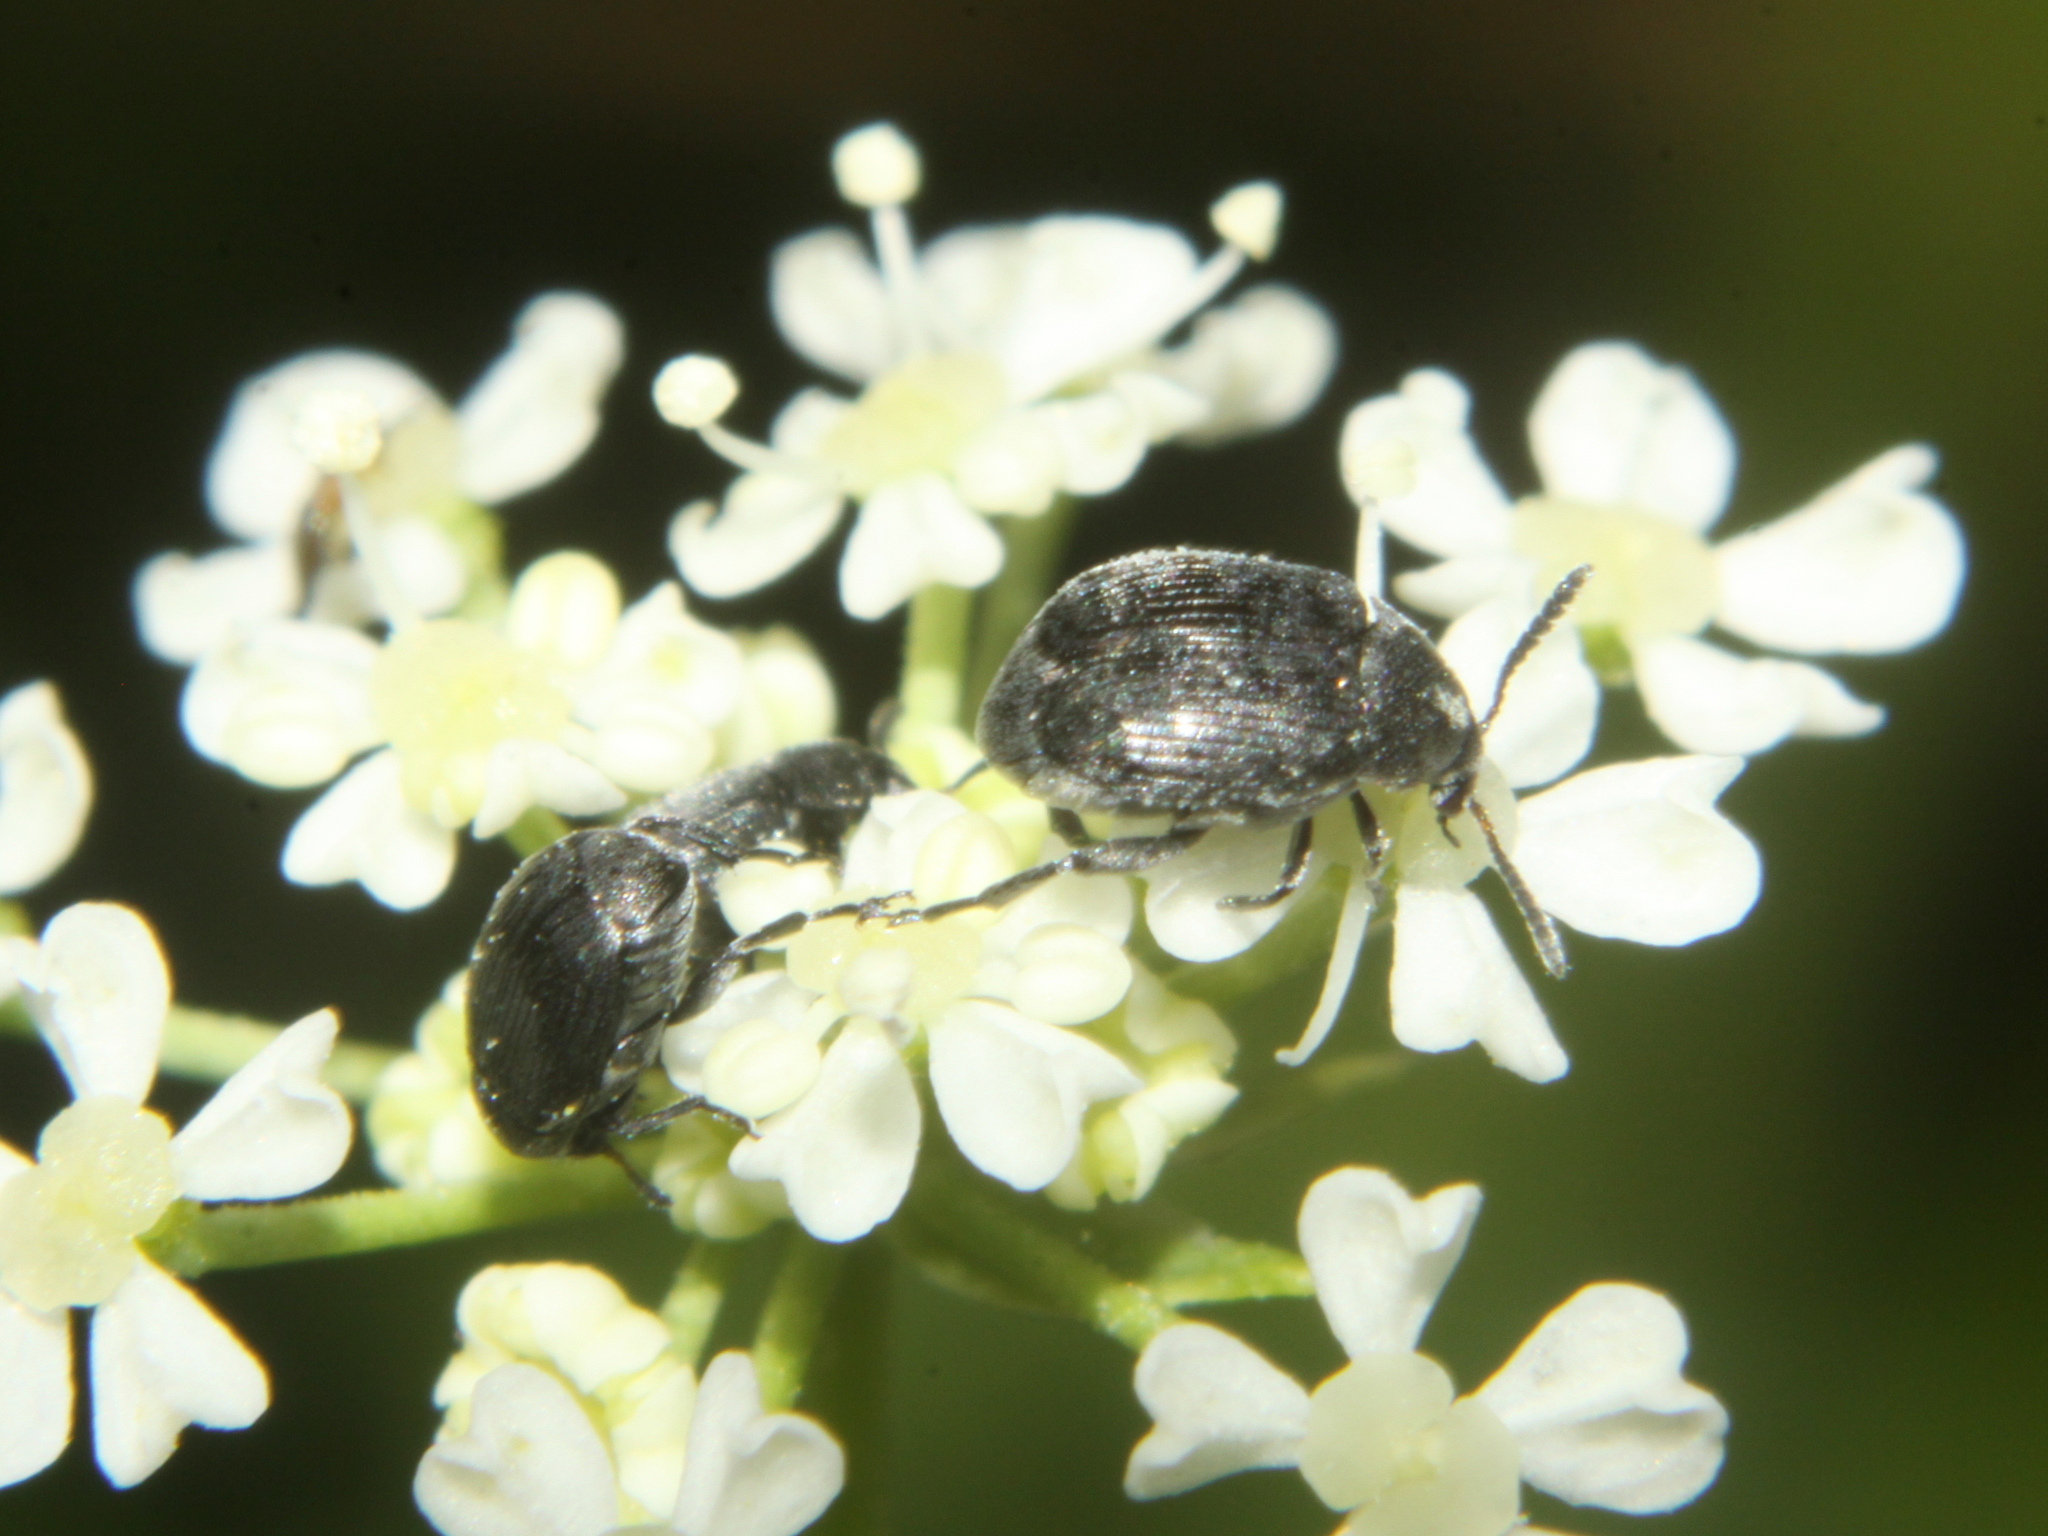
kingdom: Animalia
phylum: Arthropoda
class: Insecta
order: Coleoptera
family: Chrysomelidae
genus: Bruchidius
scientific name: Bruchidius villosus
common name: Scotch broom bruchid
